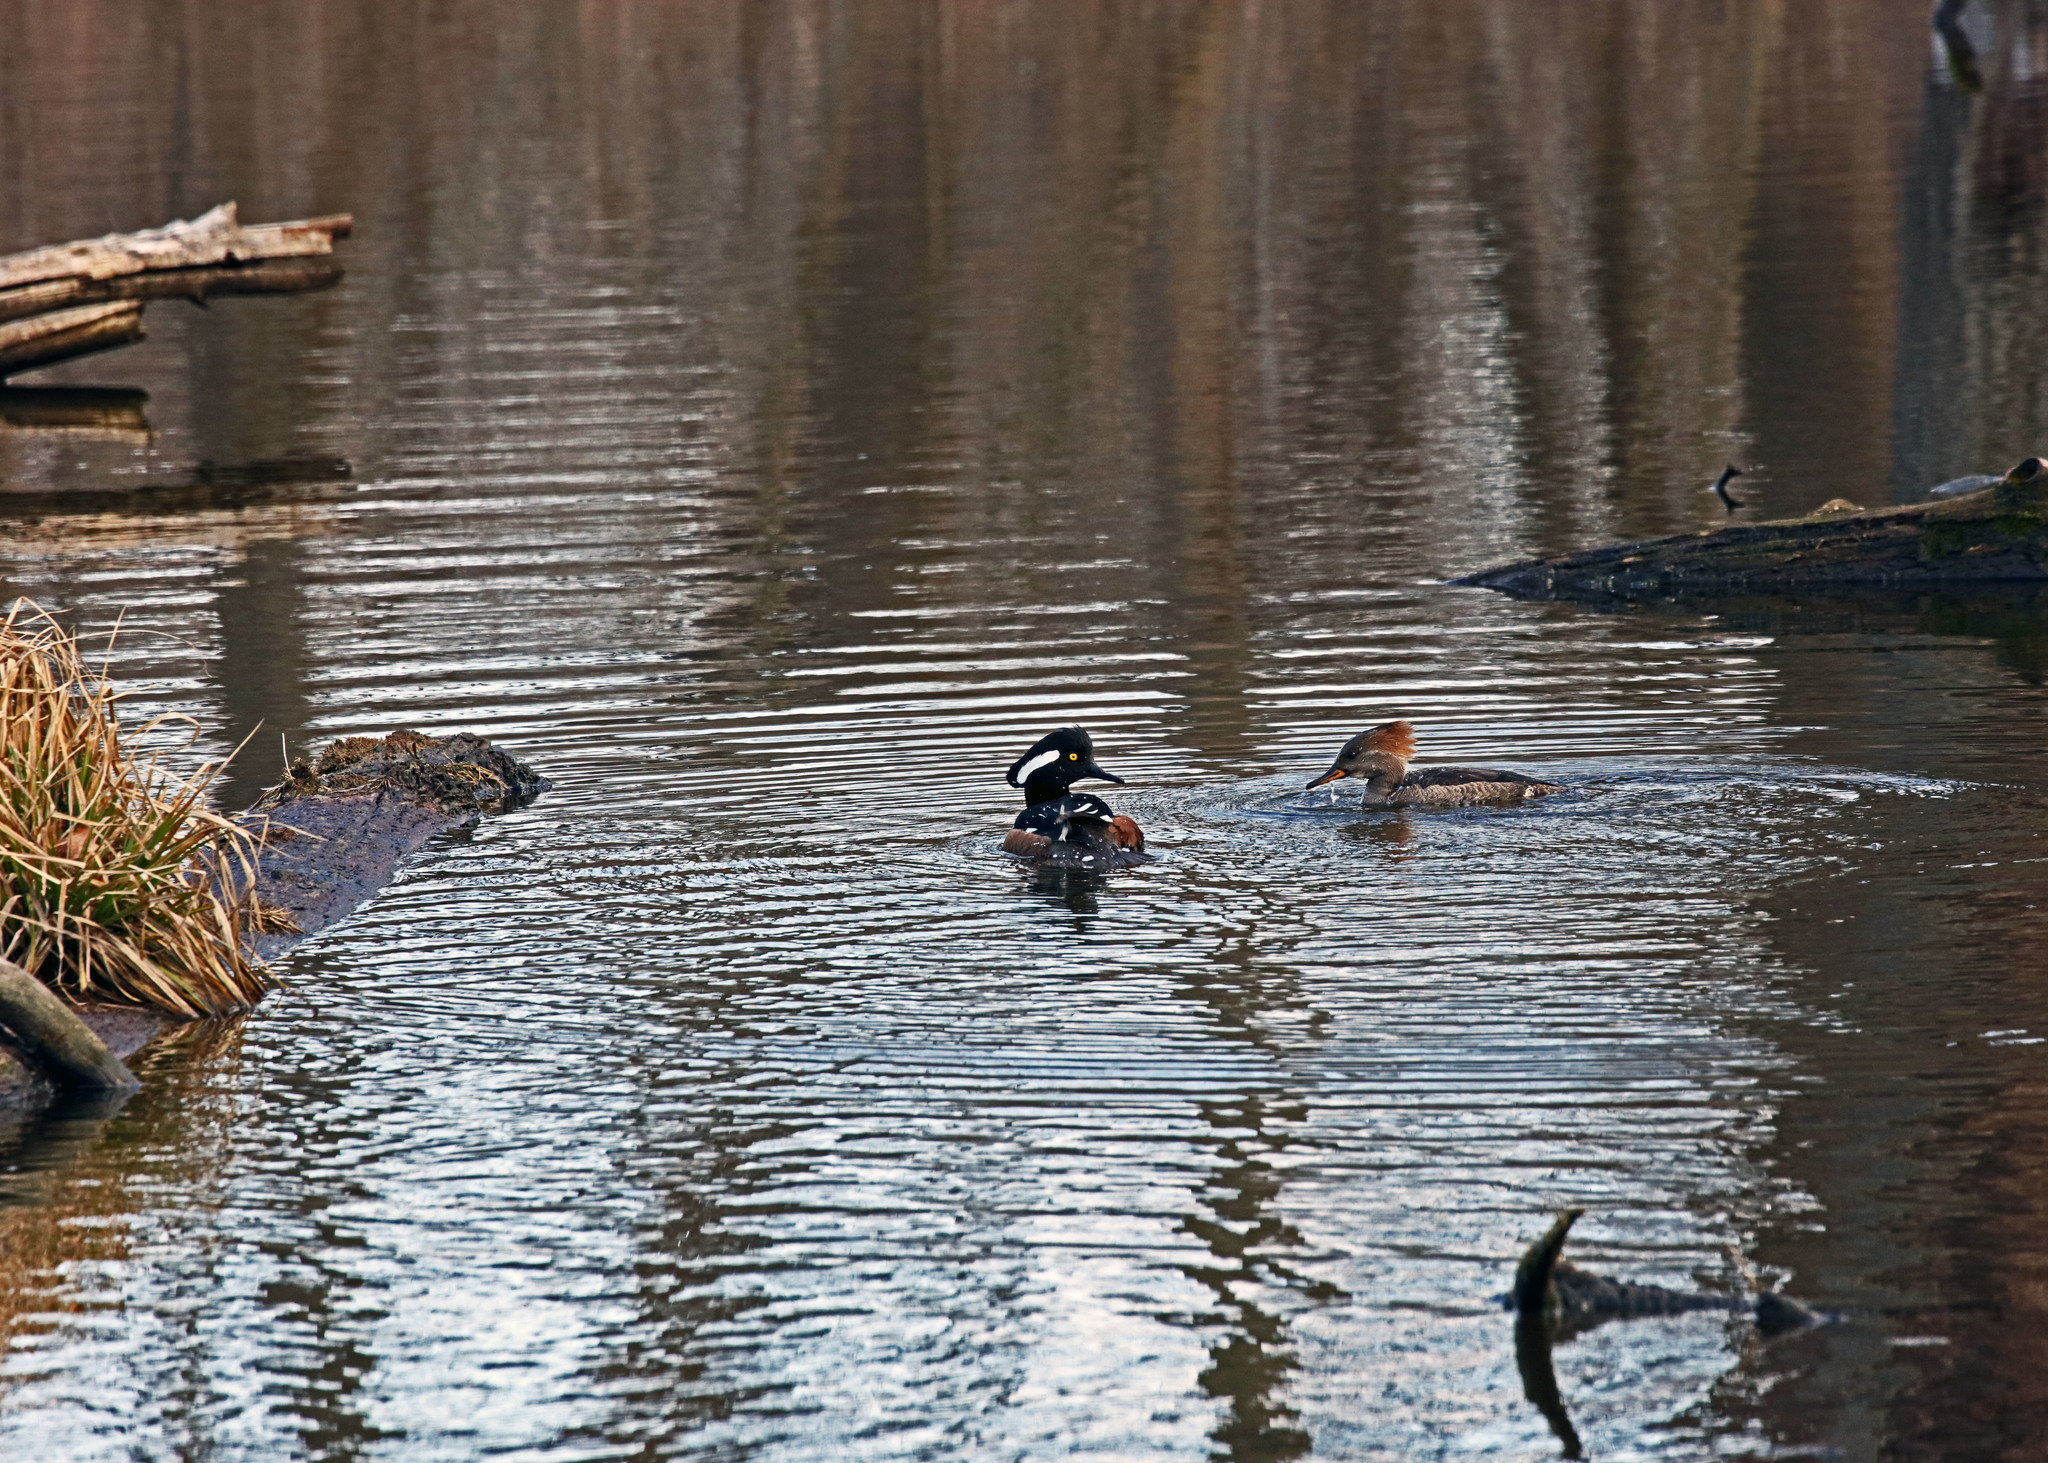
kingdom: Animalia
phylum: Chordata
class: Aves
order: Anseriformes
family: Anatidae
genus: Lophodytes
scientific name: Lophodytes cucullatus
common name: Hooded merganser
